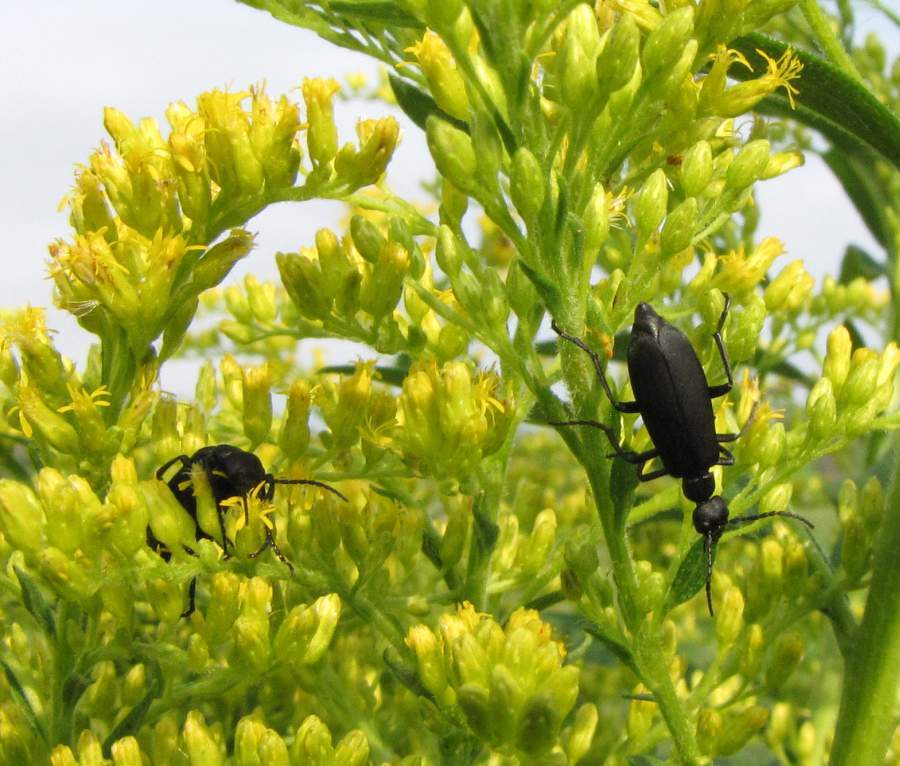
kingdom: Animalia
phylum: Arthropoda
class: Insecta
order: Coleoptera
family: Meloidae
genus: Epicauta
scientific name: Epicauta pensylvanica
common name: Black blister beetle
